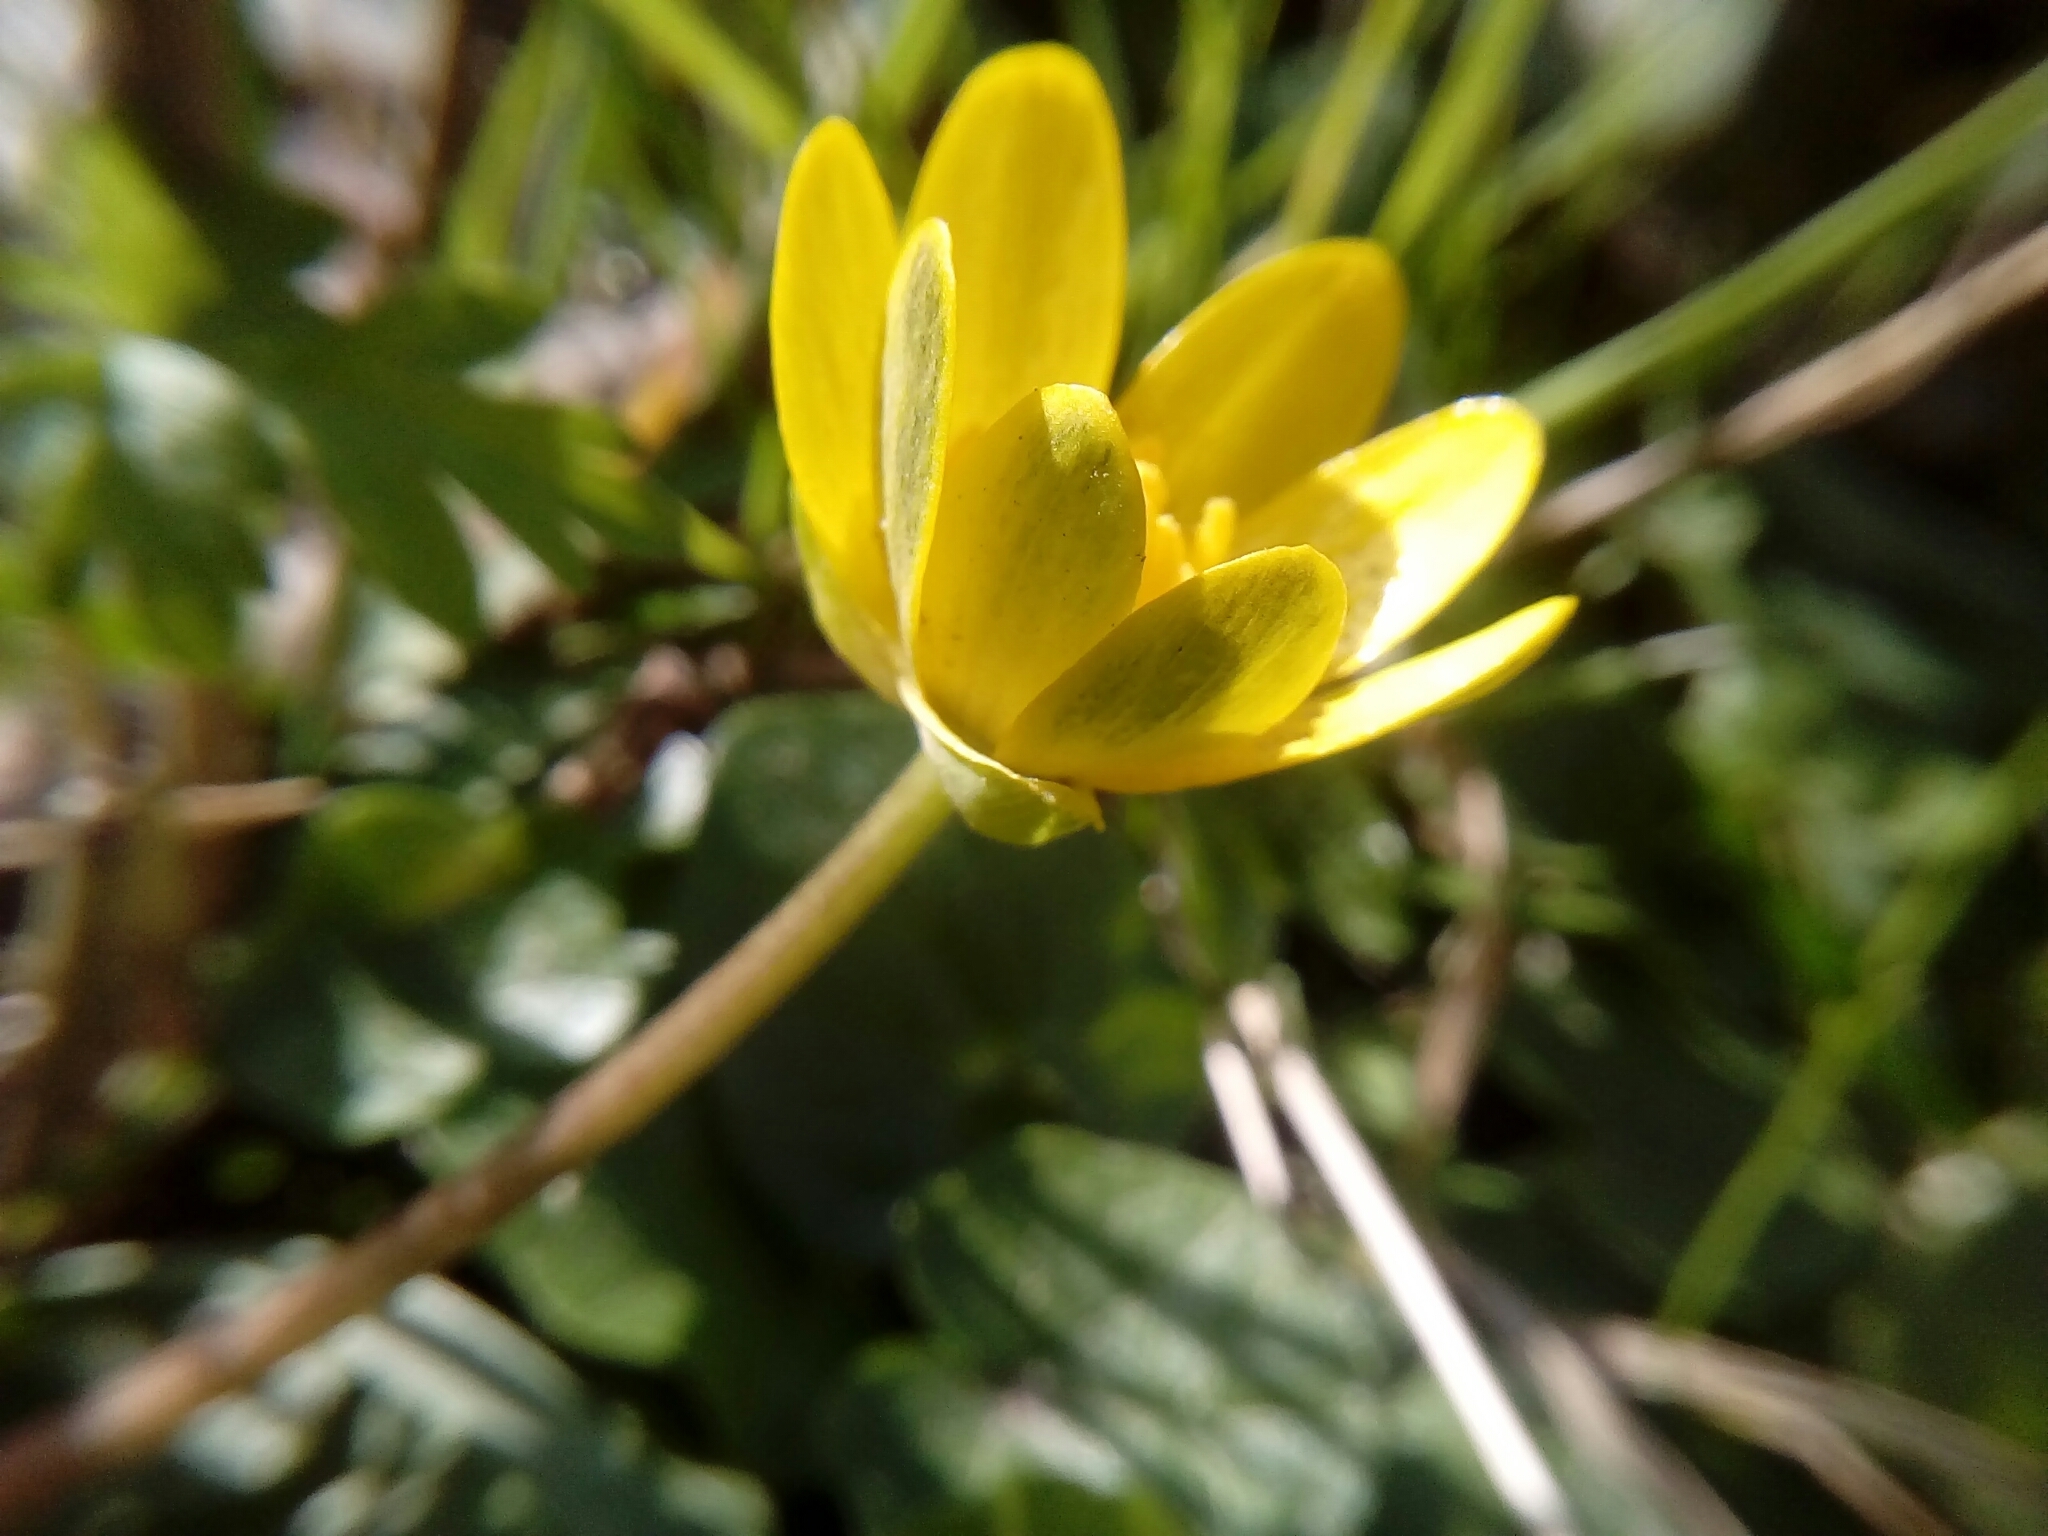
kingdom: Plantae
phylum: Tracheophyta
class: Magnoliopsida
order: Ranunculales
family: Ranunculaceae
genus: Ficaria
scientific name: Ficaria verna
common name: Lesser celandine
